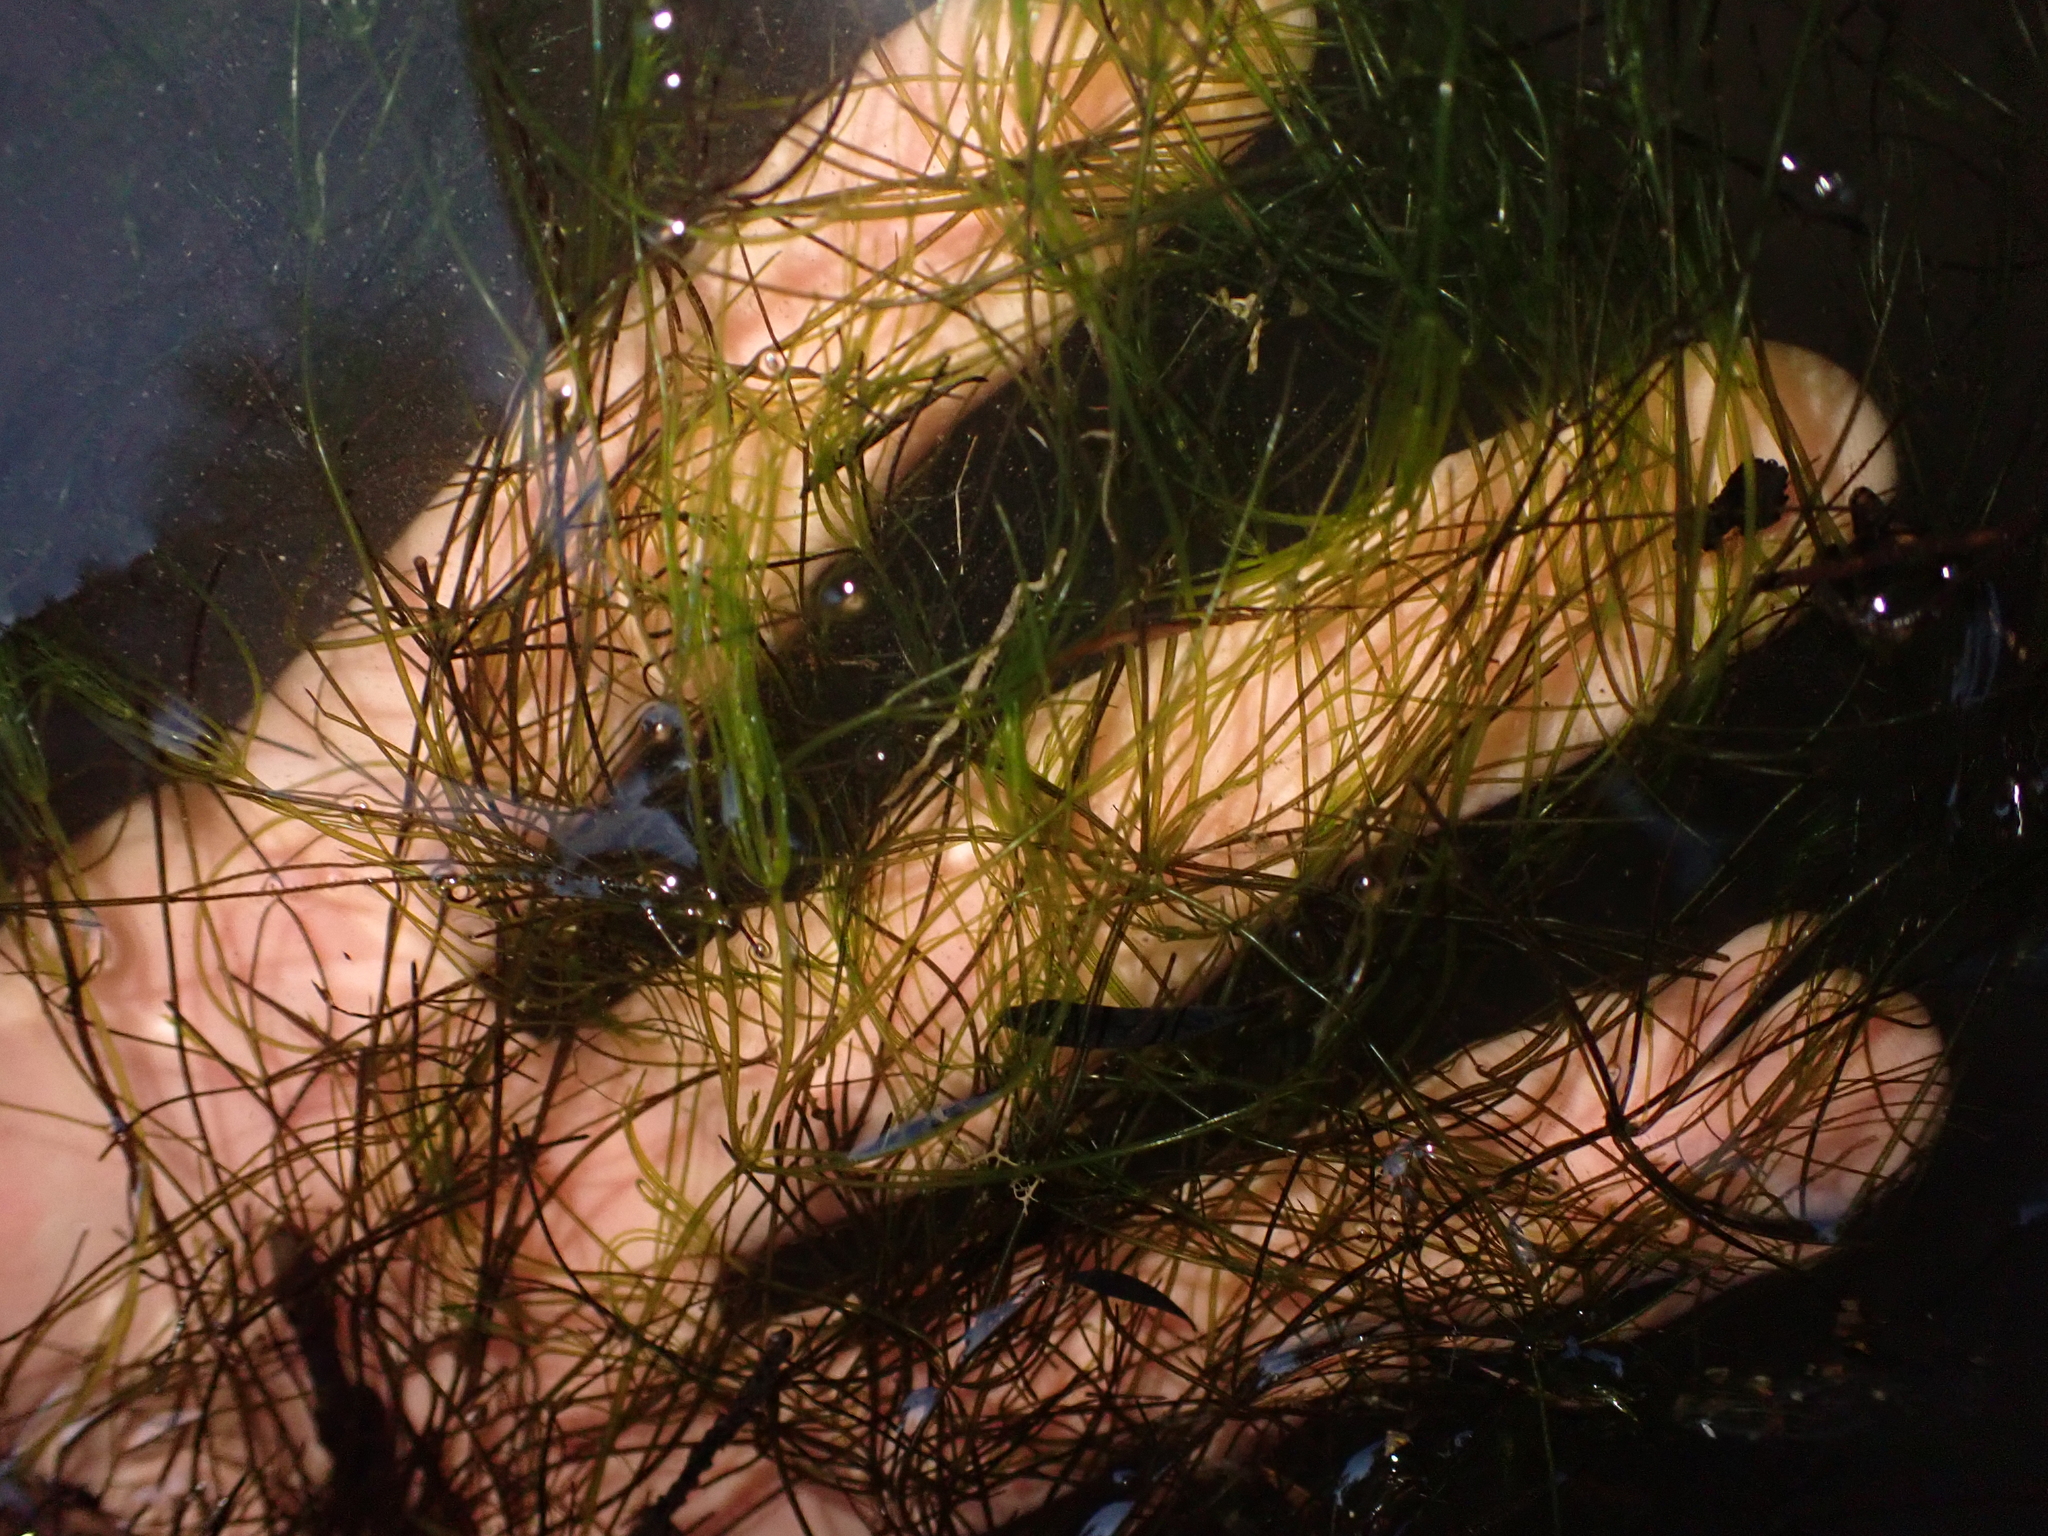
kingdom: Plantae
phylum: Charophyta
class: Charophyceae
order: Charales
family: Characeae
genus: Nitella
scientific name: Nitella
